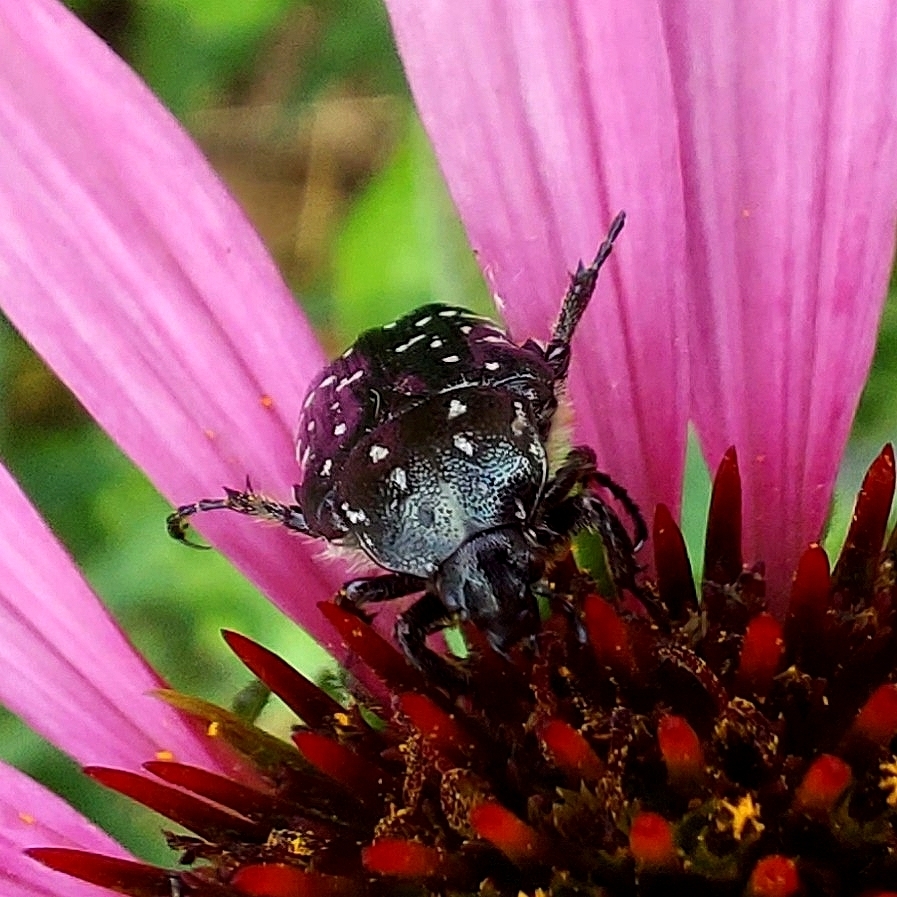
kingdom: Animalia
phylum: Arthropoda
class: Insecta
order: Coleoptera
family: Scarabaeidae
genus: Oxythyrea
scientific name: Oxythyrea funesta
